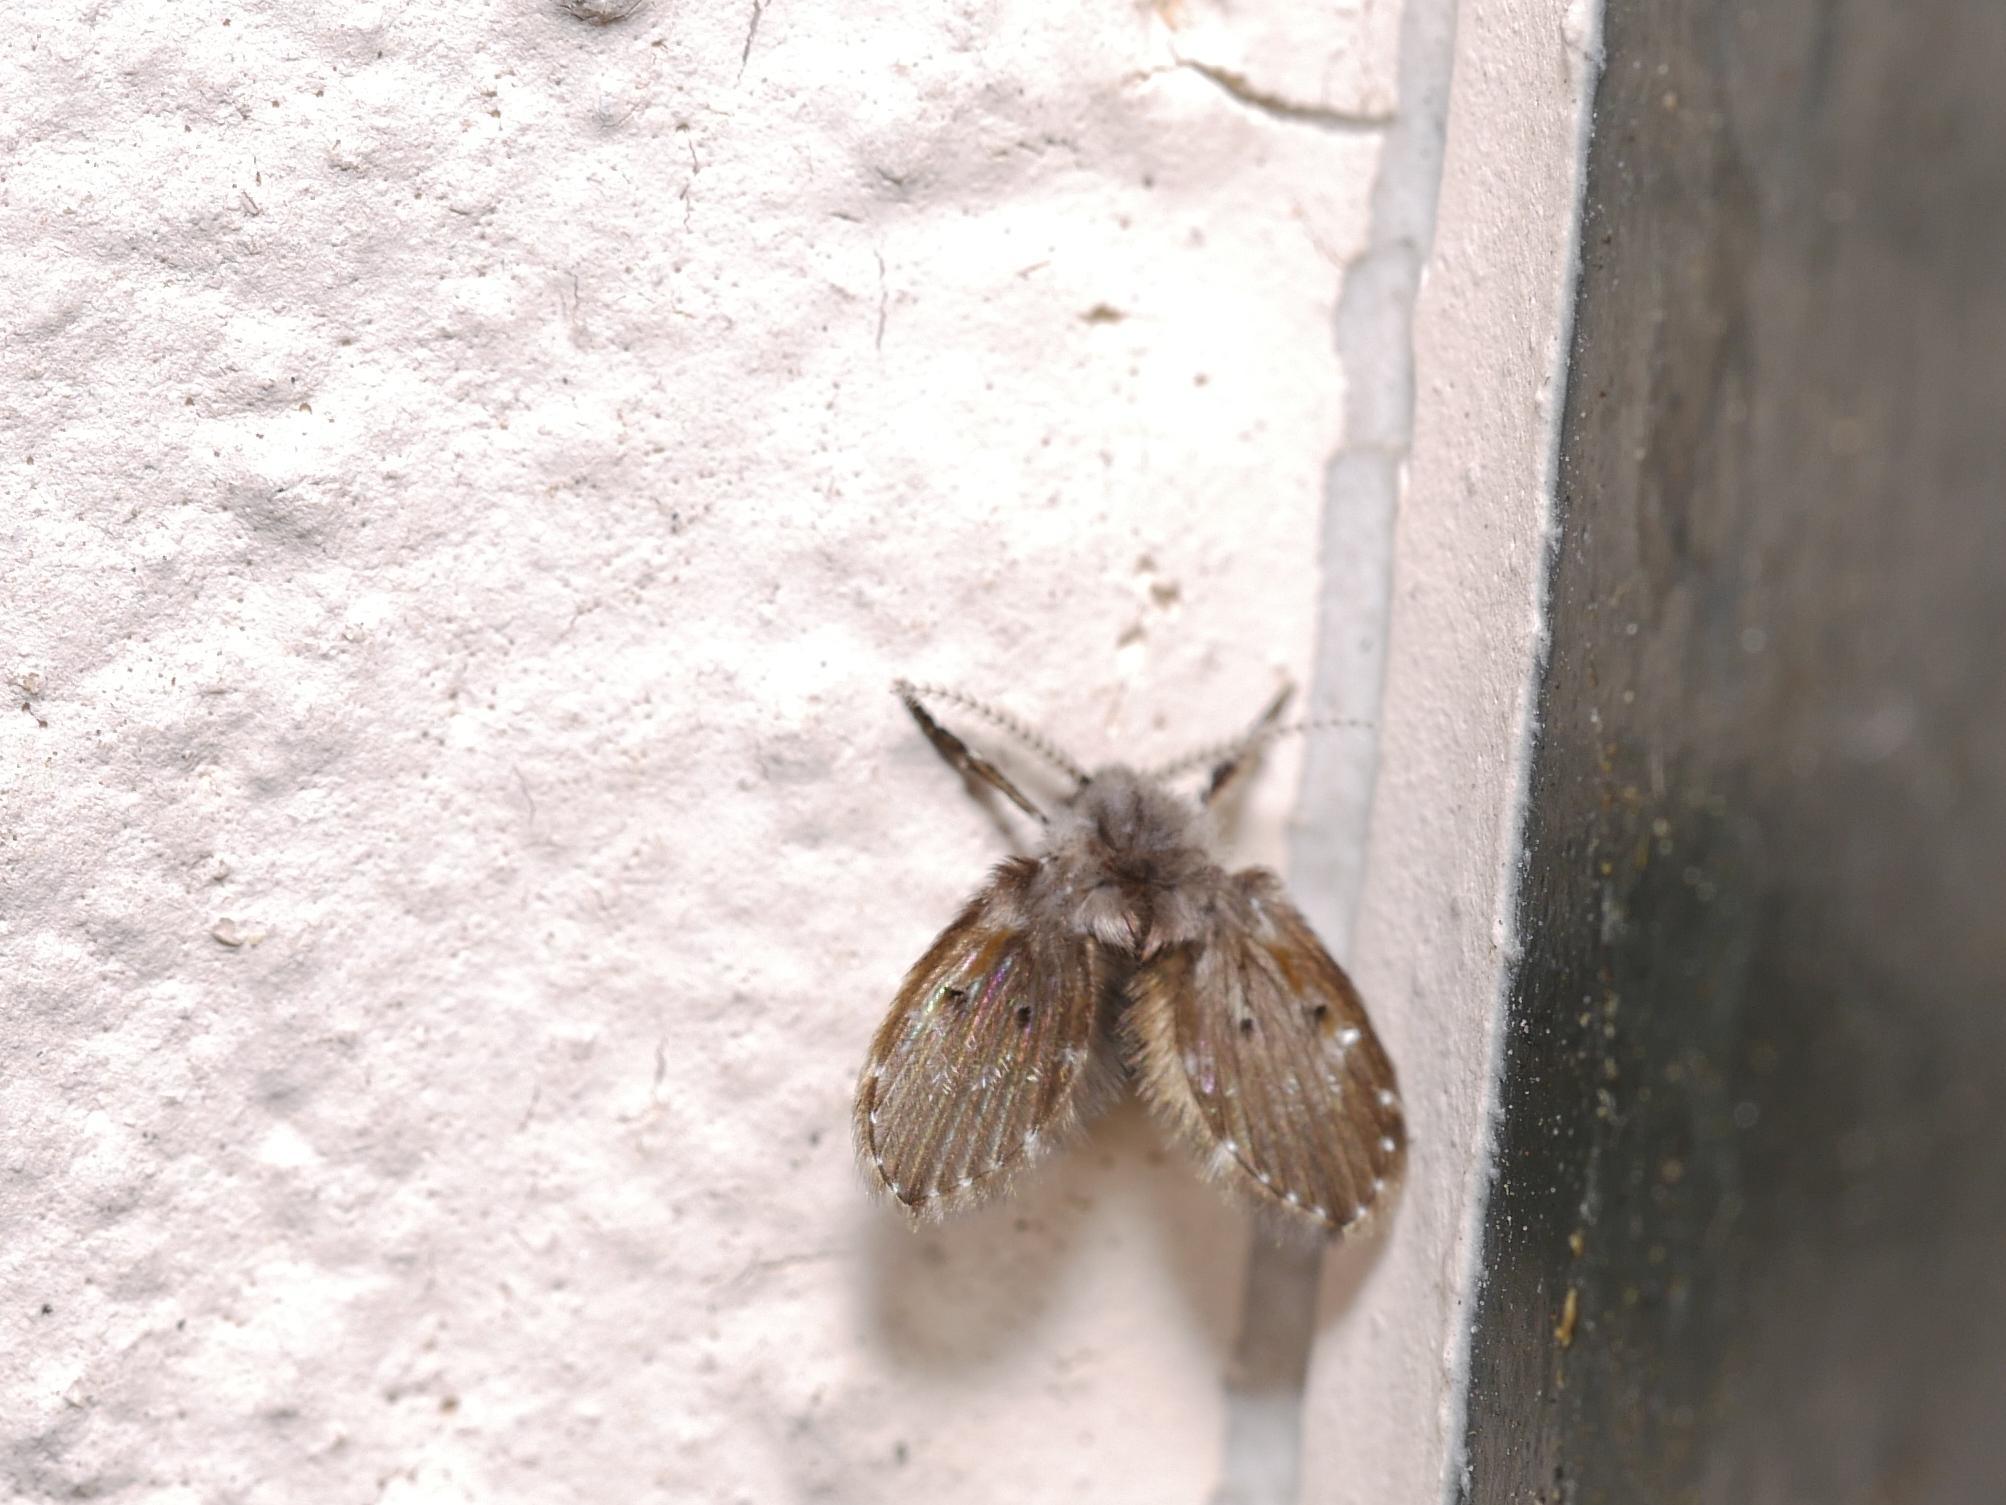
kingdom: Animalia
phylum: Arthropoda
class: Insecta
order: Diptera
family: Psychodidae
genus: Clogmia
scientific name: Clogmia albipunctatus
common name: White-spotted moth fly
